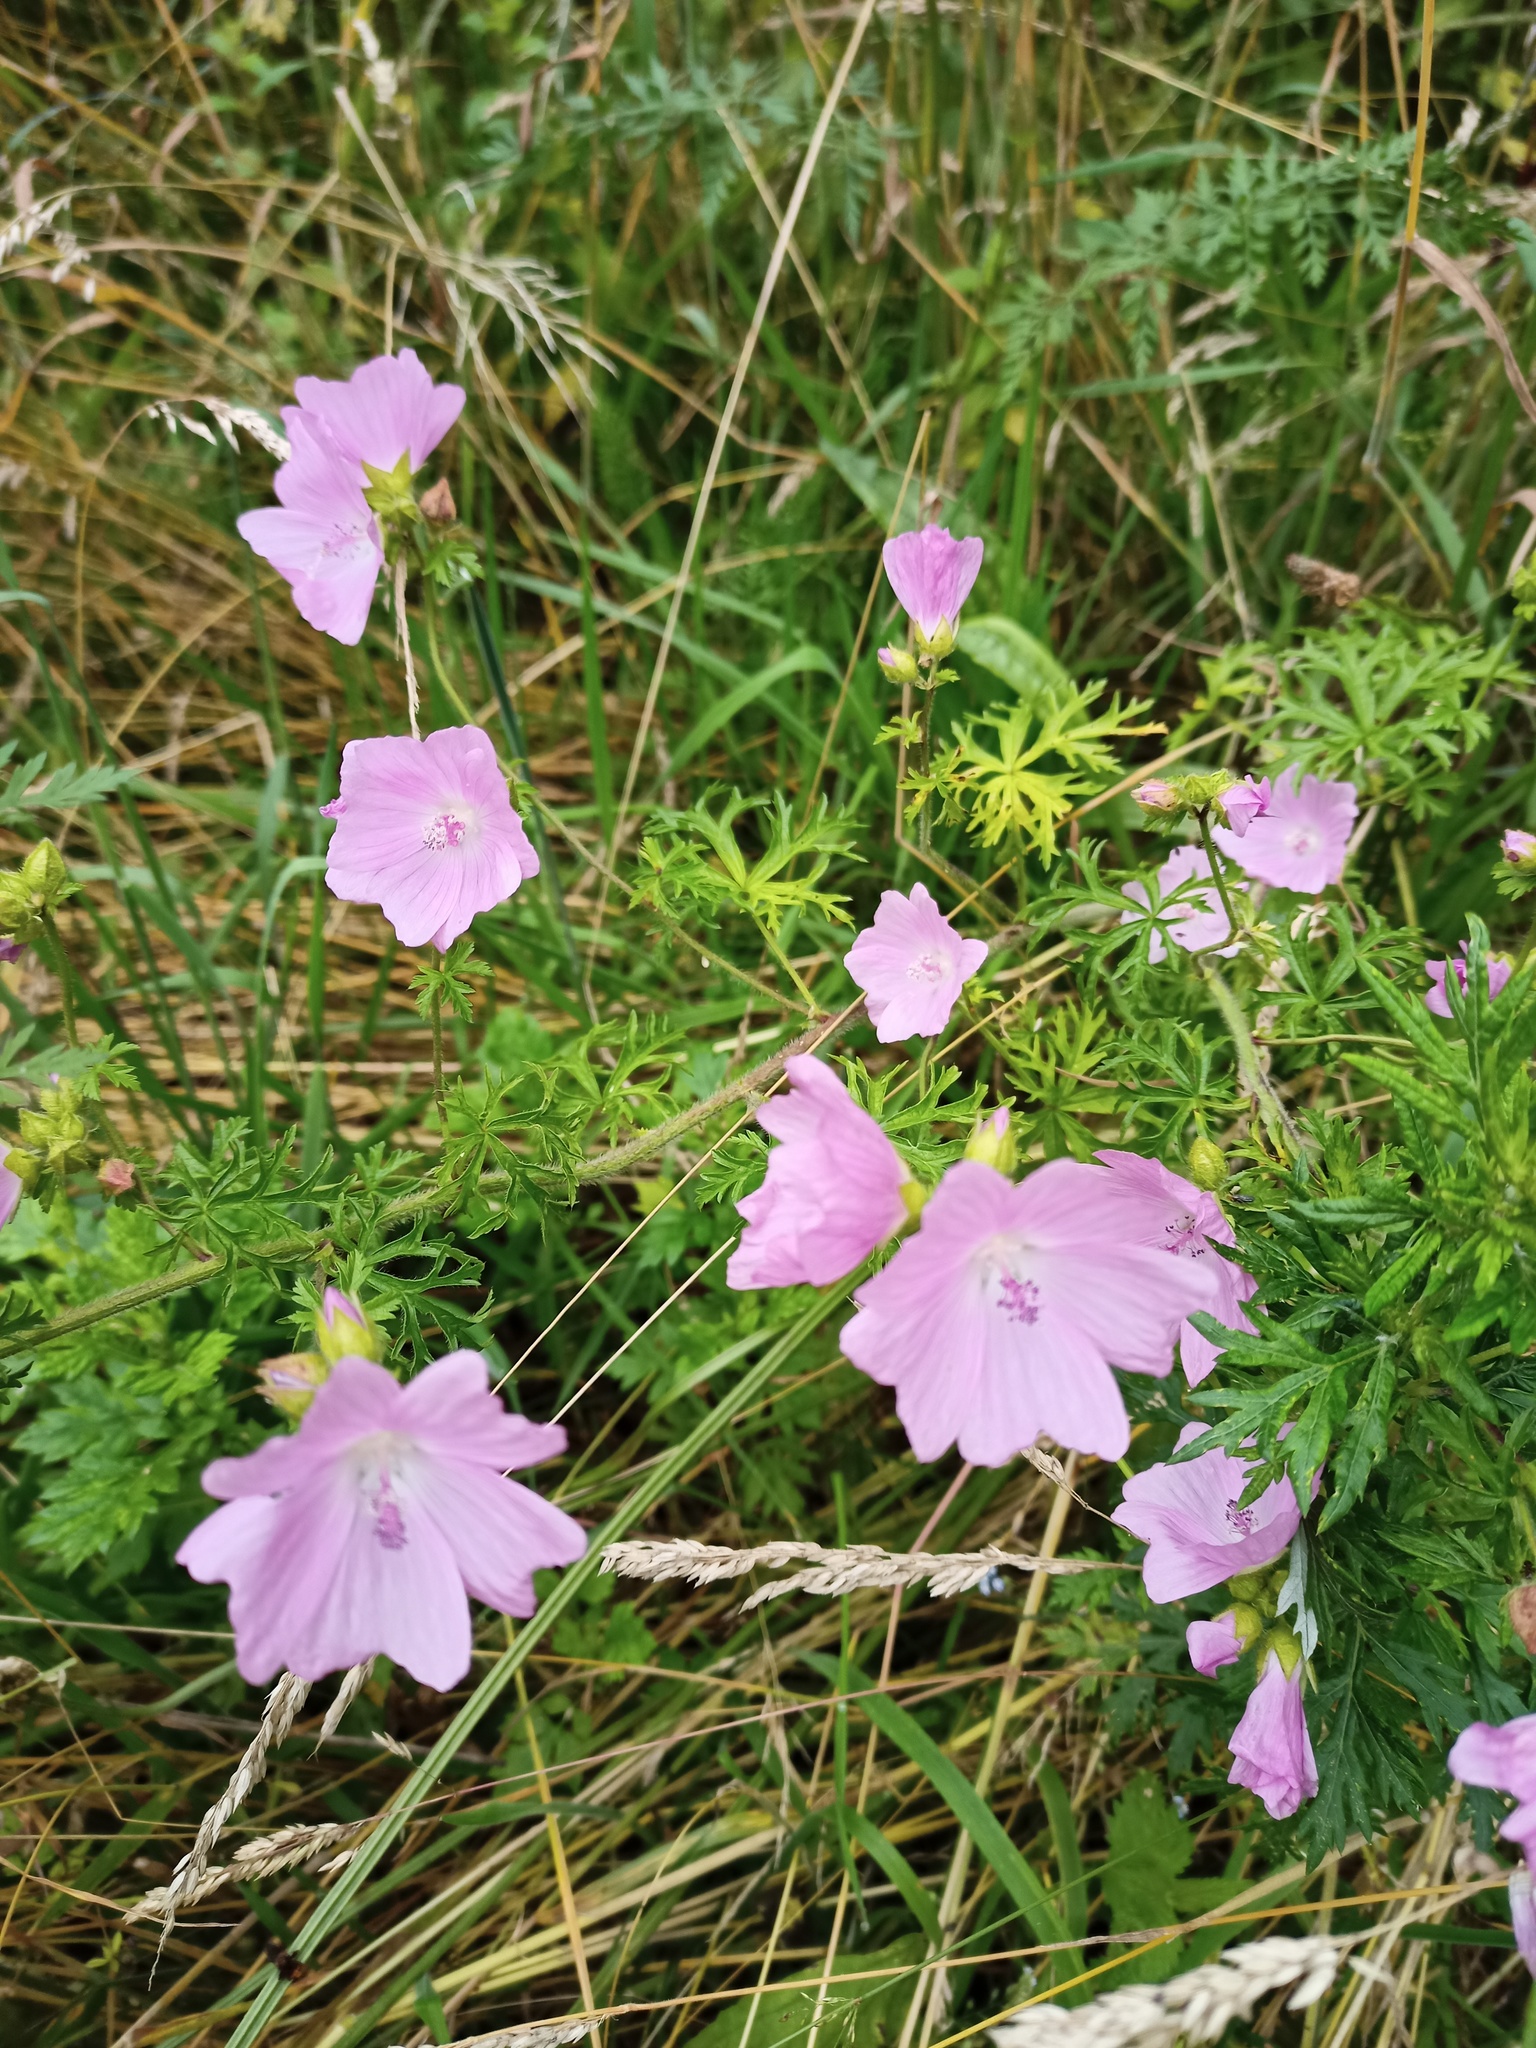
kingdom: Plantae
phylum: Tracheophyta
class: Magnoliopsida
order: Malvales
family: Malvaceae
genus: Malva
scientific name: Malva moschata
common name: Musk mallow
